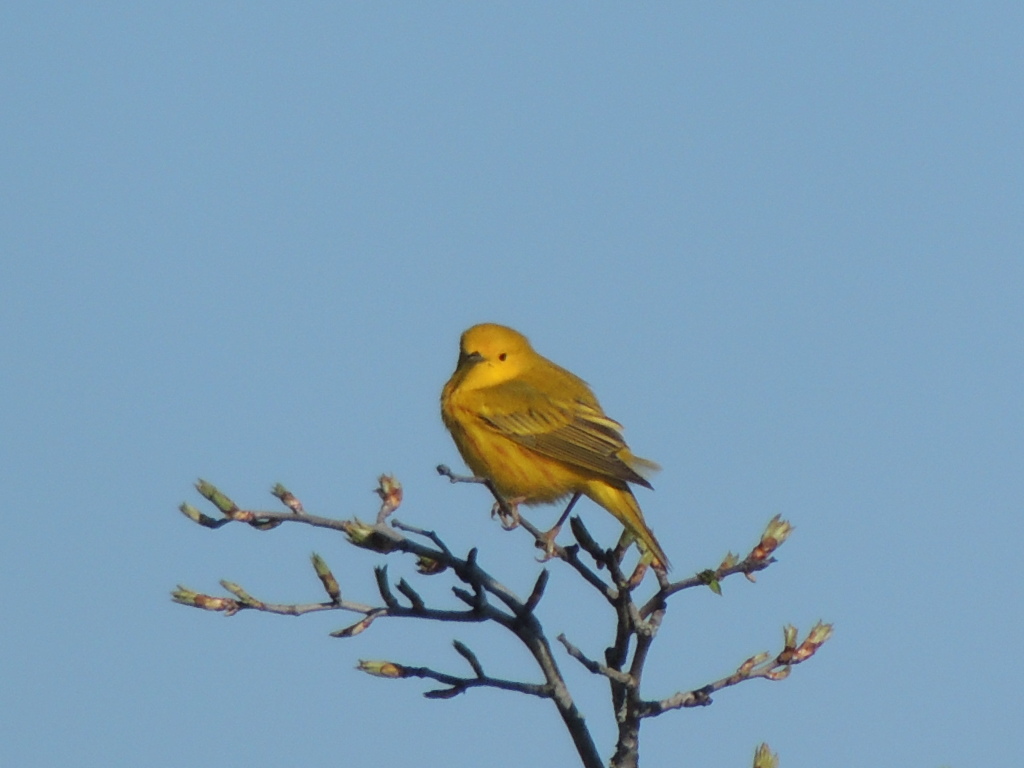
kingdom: Animalia
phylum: Chordata
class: Aves
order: Passeriformes
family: Parulidae
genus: Setophaga
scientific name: Setophaga petechia
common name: Yellow warbler
